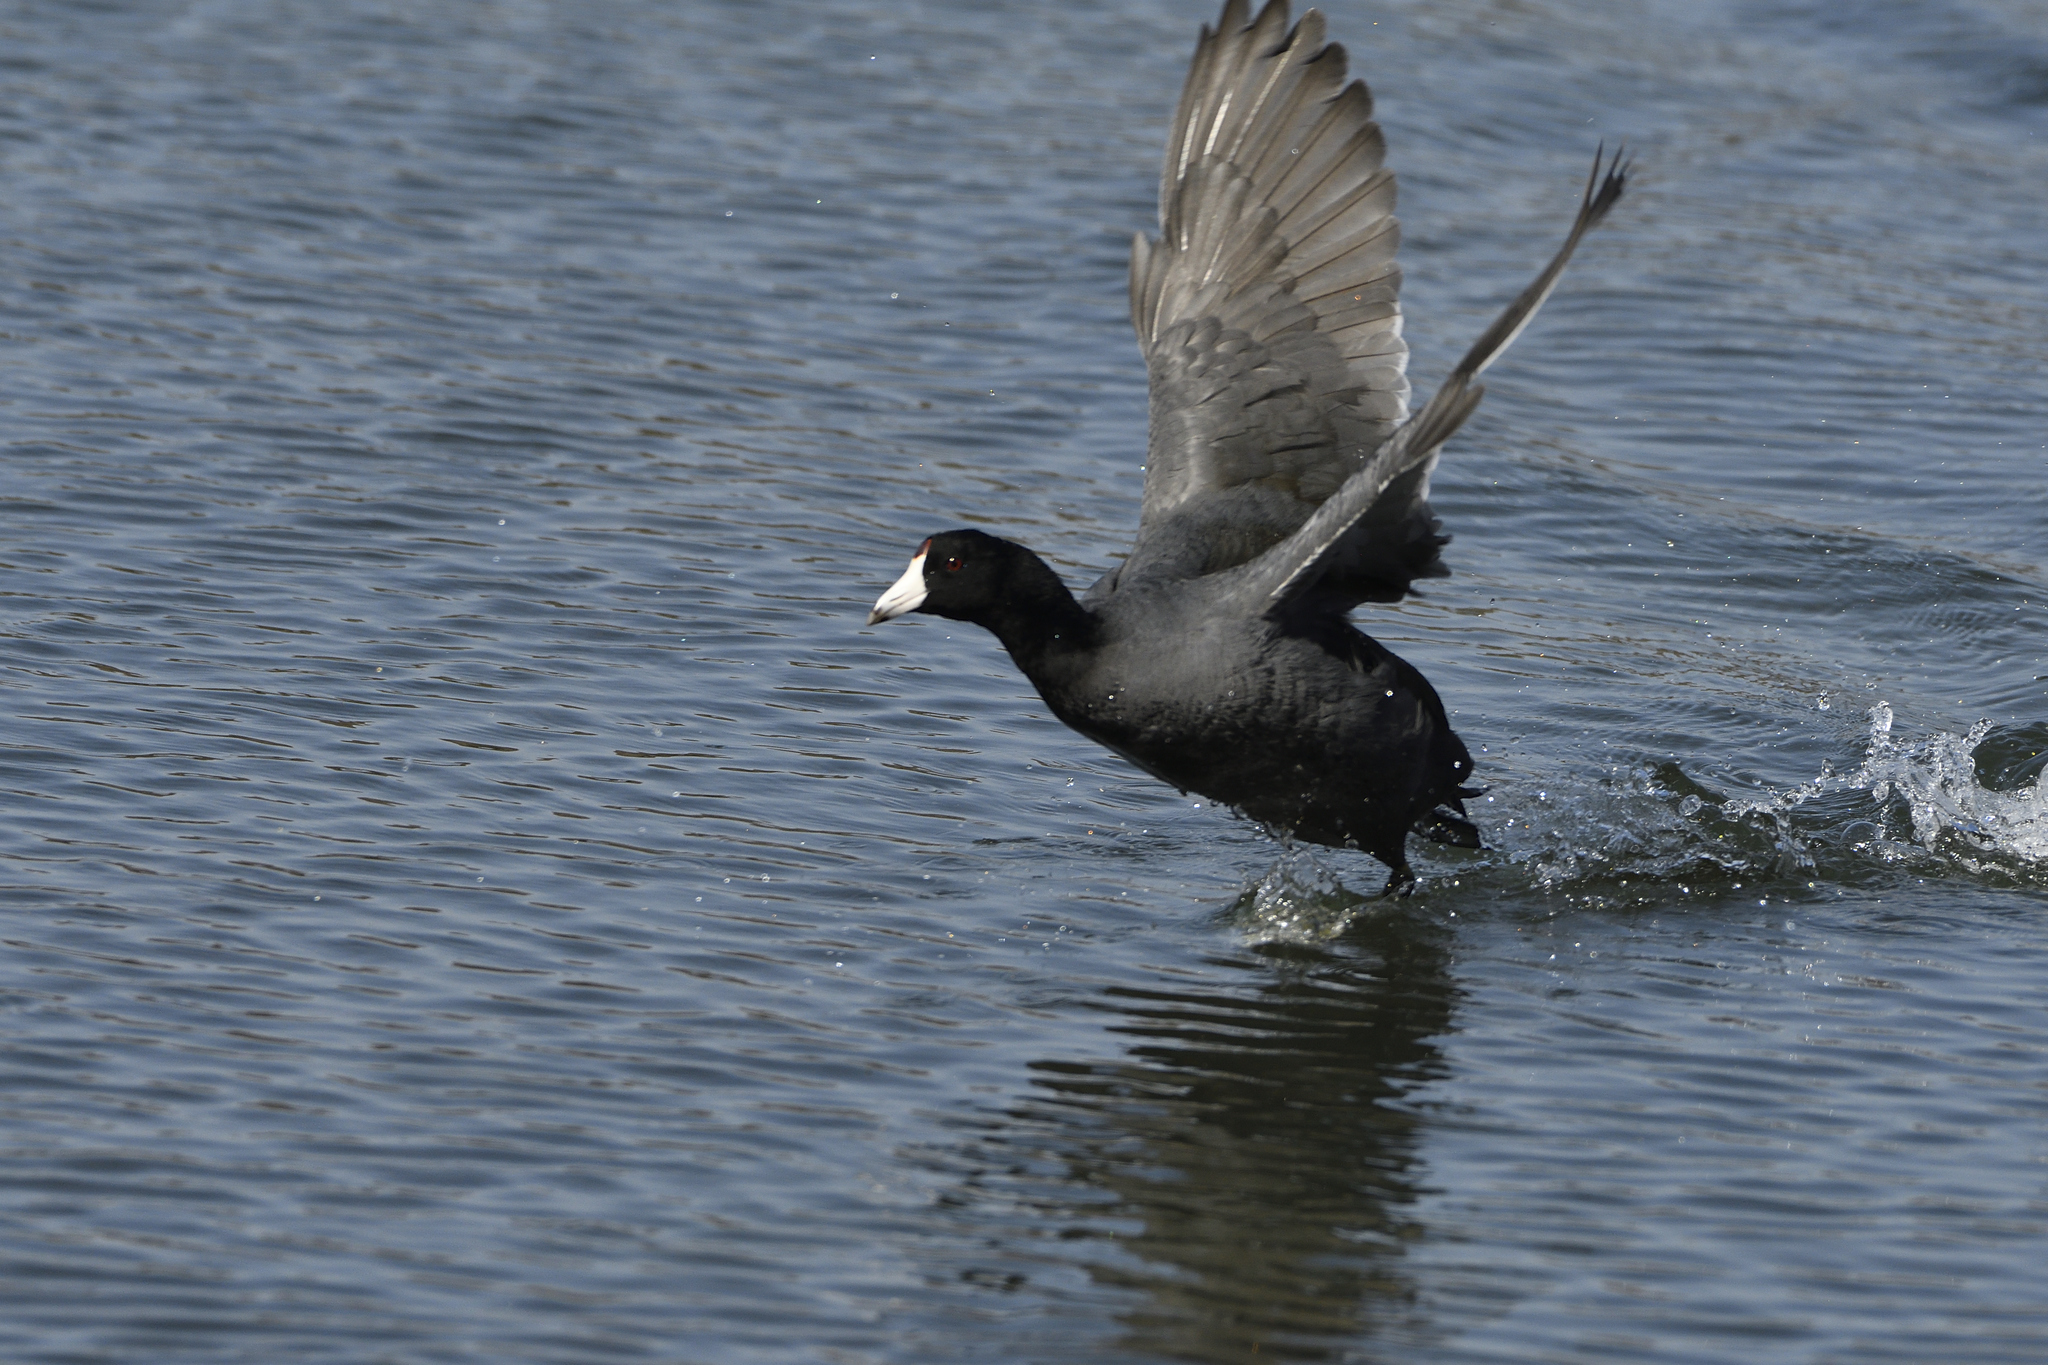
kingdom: Animalia
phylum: Chordata
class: Aves
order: Gruiformes
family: Rallidae
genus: Fulica
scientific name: Fulica americana
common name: American coot
